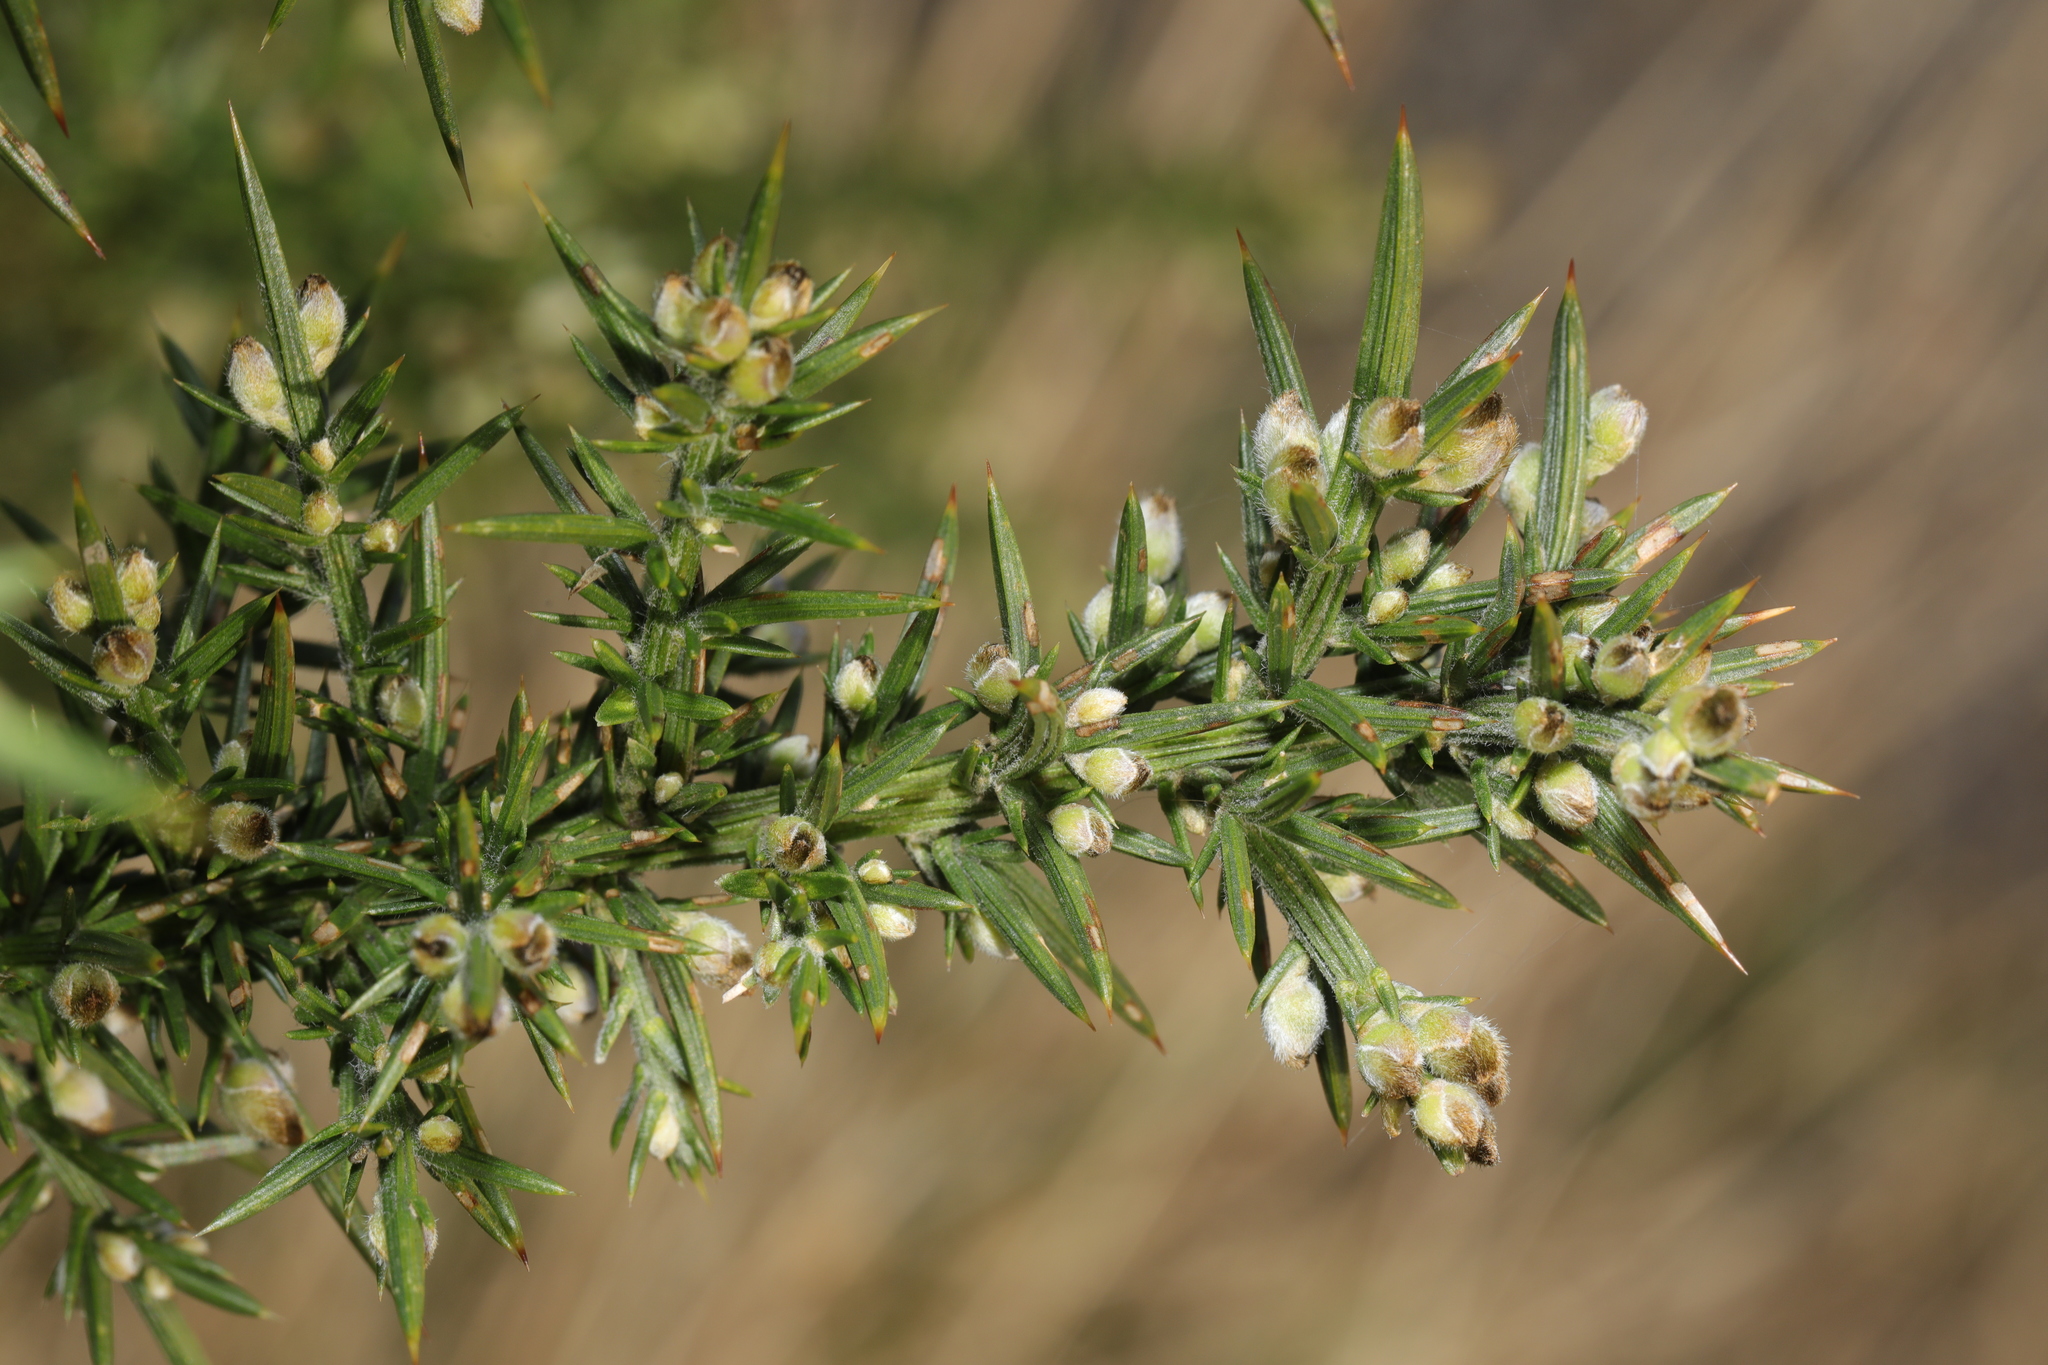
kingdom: Plantae
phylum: Tracheophyta
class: Magnoliopsida
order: Fabales
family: Fabaceae
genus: Ulex
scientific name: Ulex europaeus
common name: Common gorse
